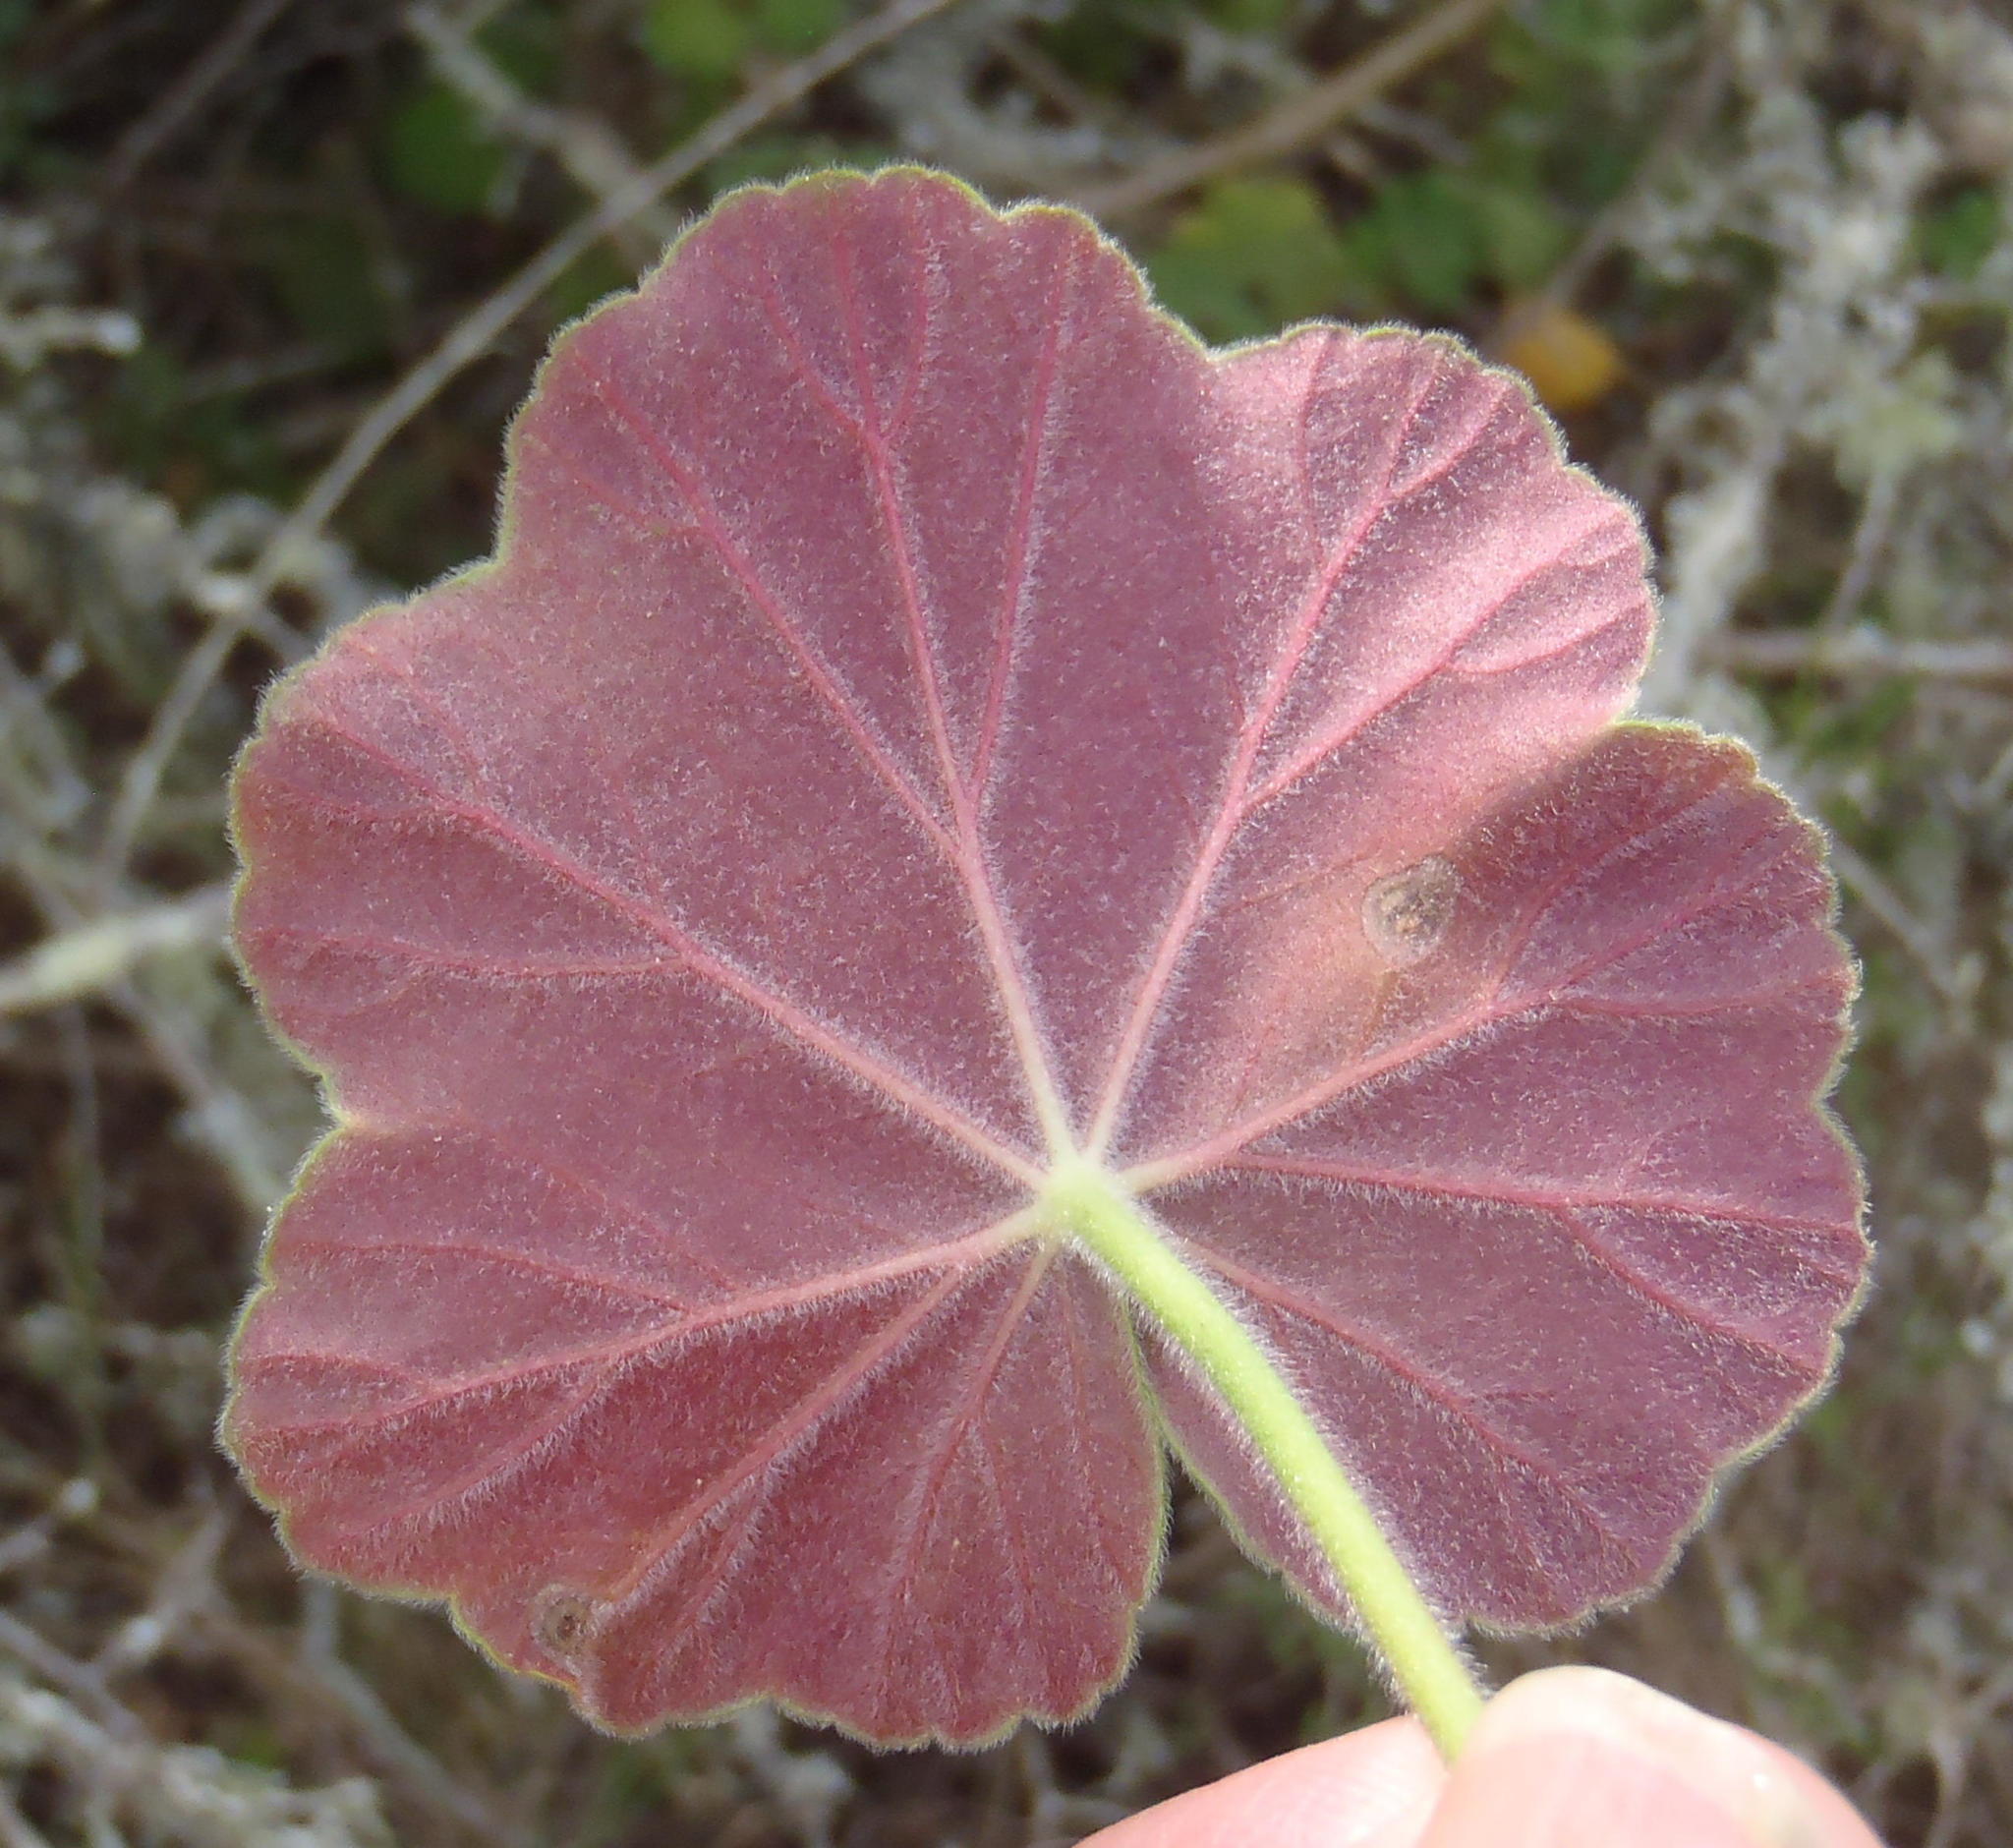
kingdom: Plantae
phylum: Tracheophyta
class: Magnoliopsida
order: Geraniales
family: Geraniaceae
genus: Pelargonium
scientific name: Pelargonium inquinans
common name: Scarlet geranium
